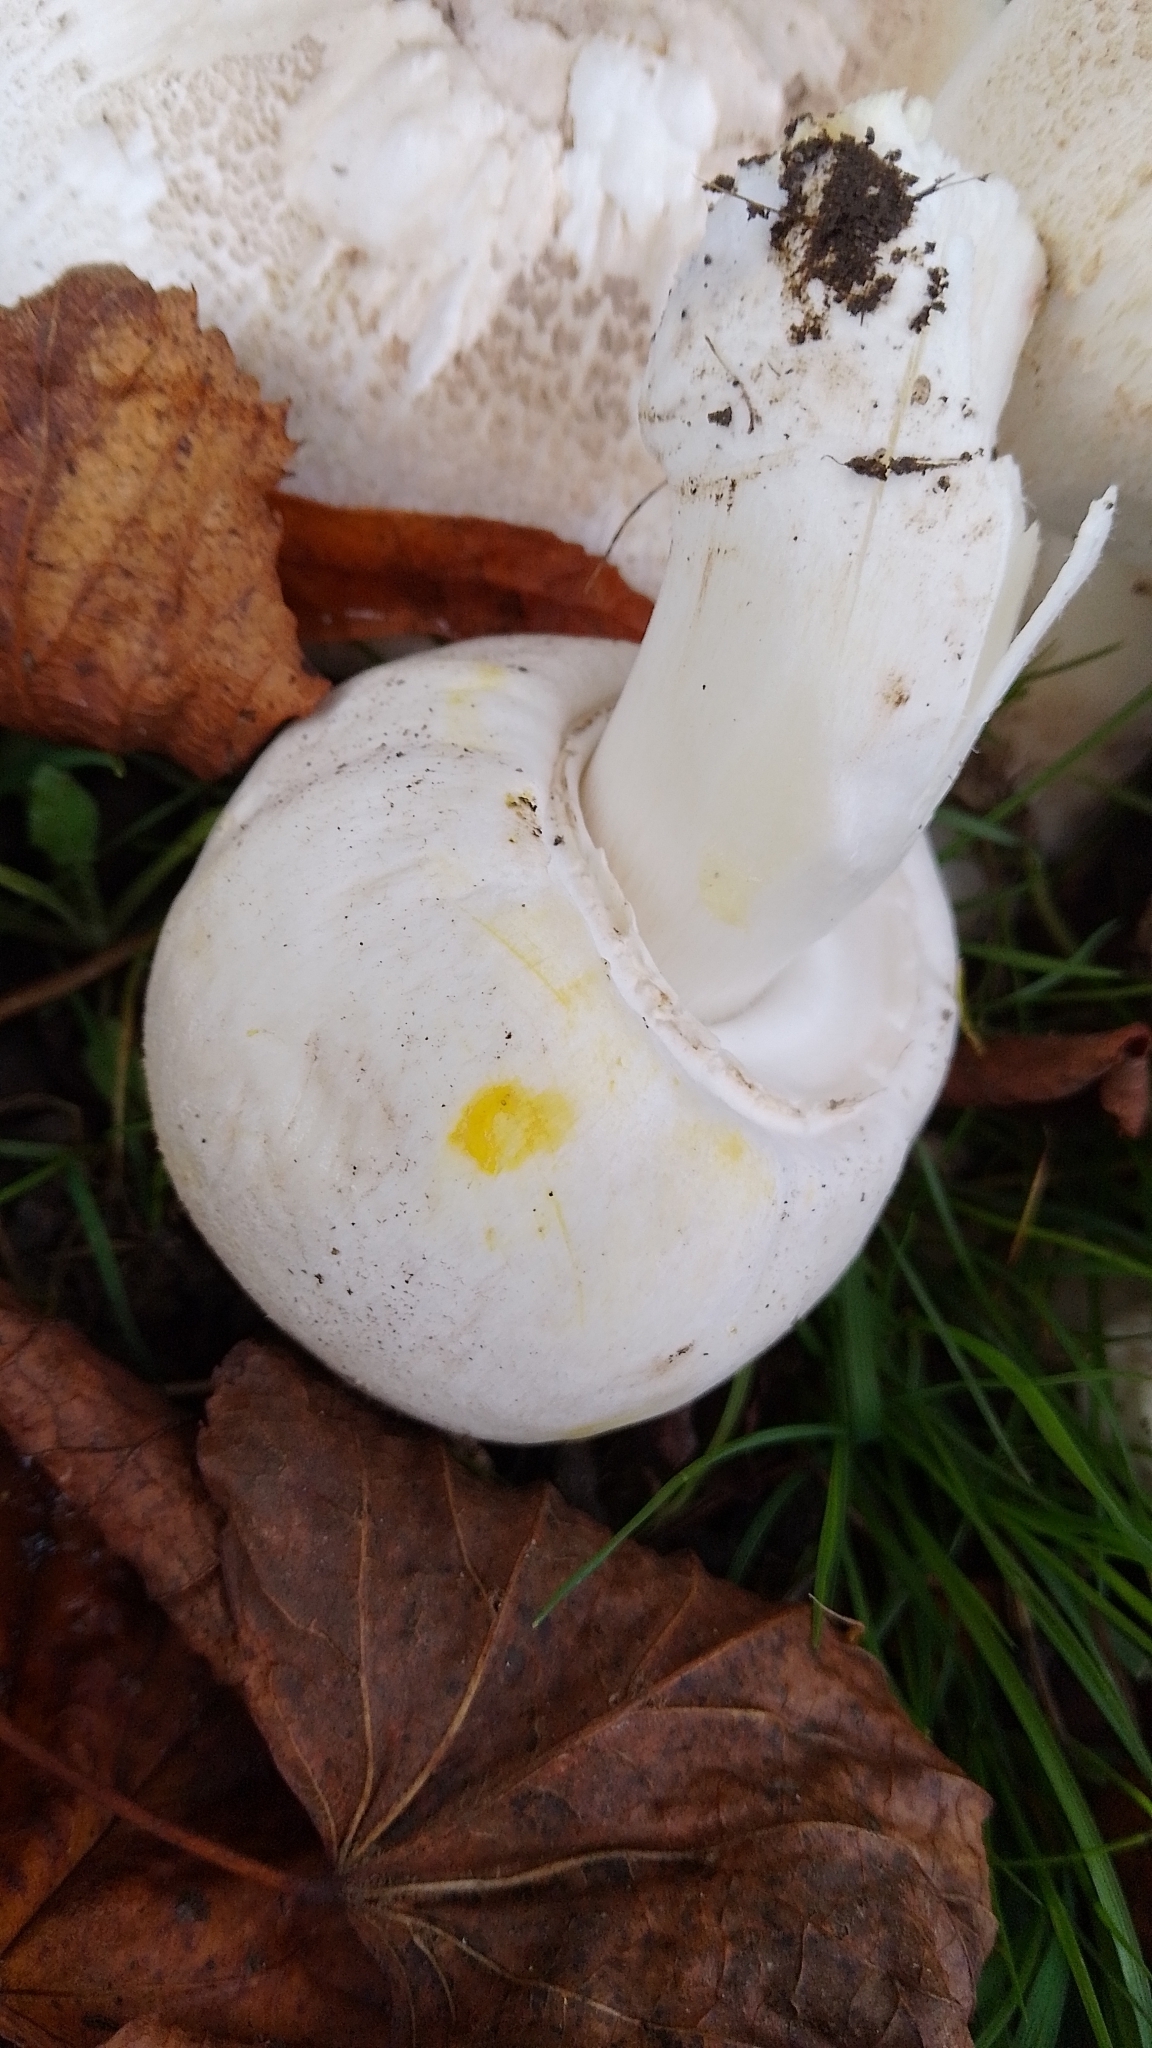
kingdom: Fungi
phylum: Basidiomycota
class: Agaricomycetes
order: Agaricales
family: Agaricaceae
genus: Agaricus
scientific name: Agaricus xanthodermus
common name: Yellow stainer
